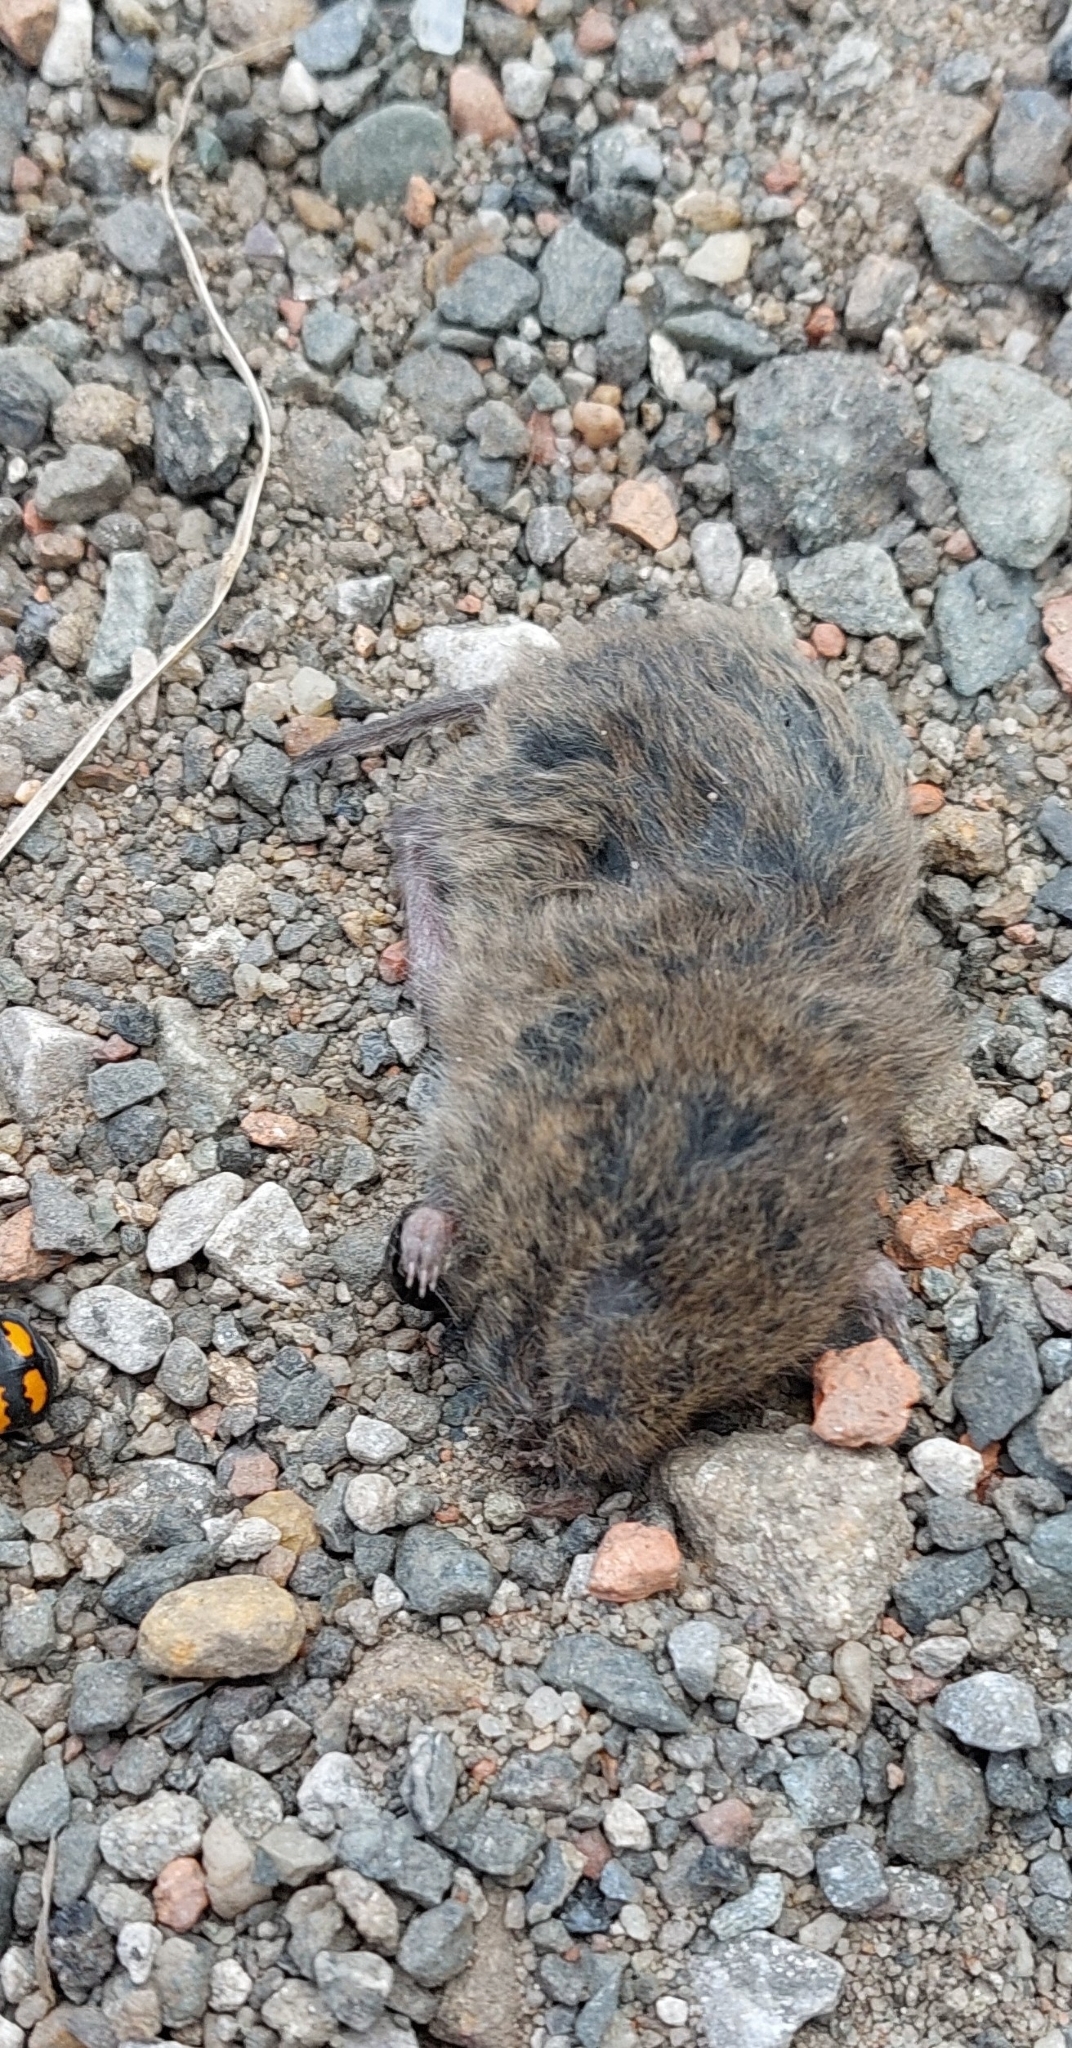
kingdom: Animalia
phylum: Chordata
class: Mammalia
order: Rodentia
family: Cricetidae
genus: Microtus
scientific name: Microtus agrestis
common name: Field vole
